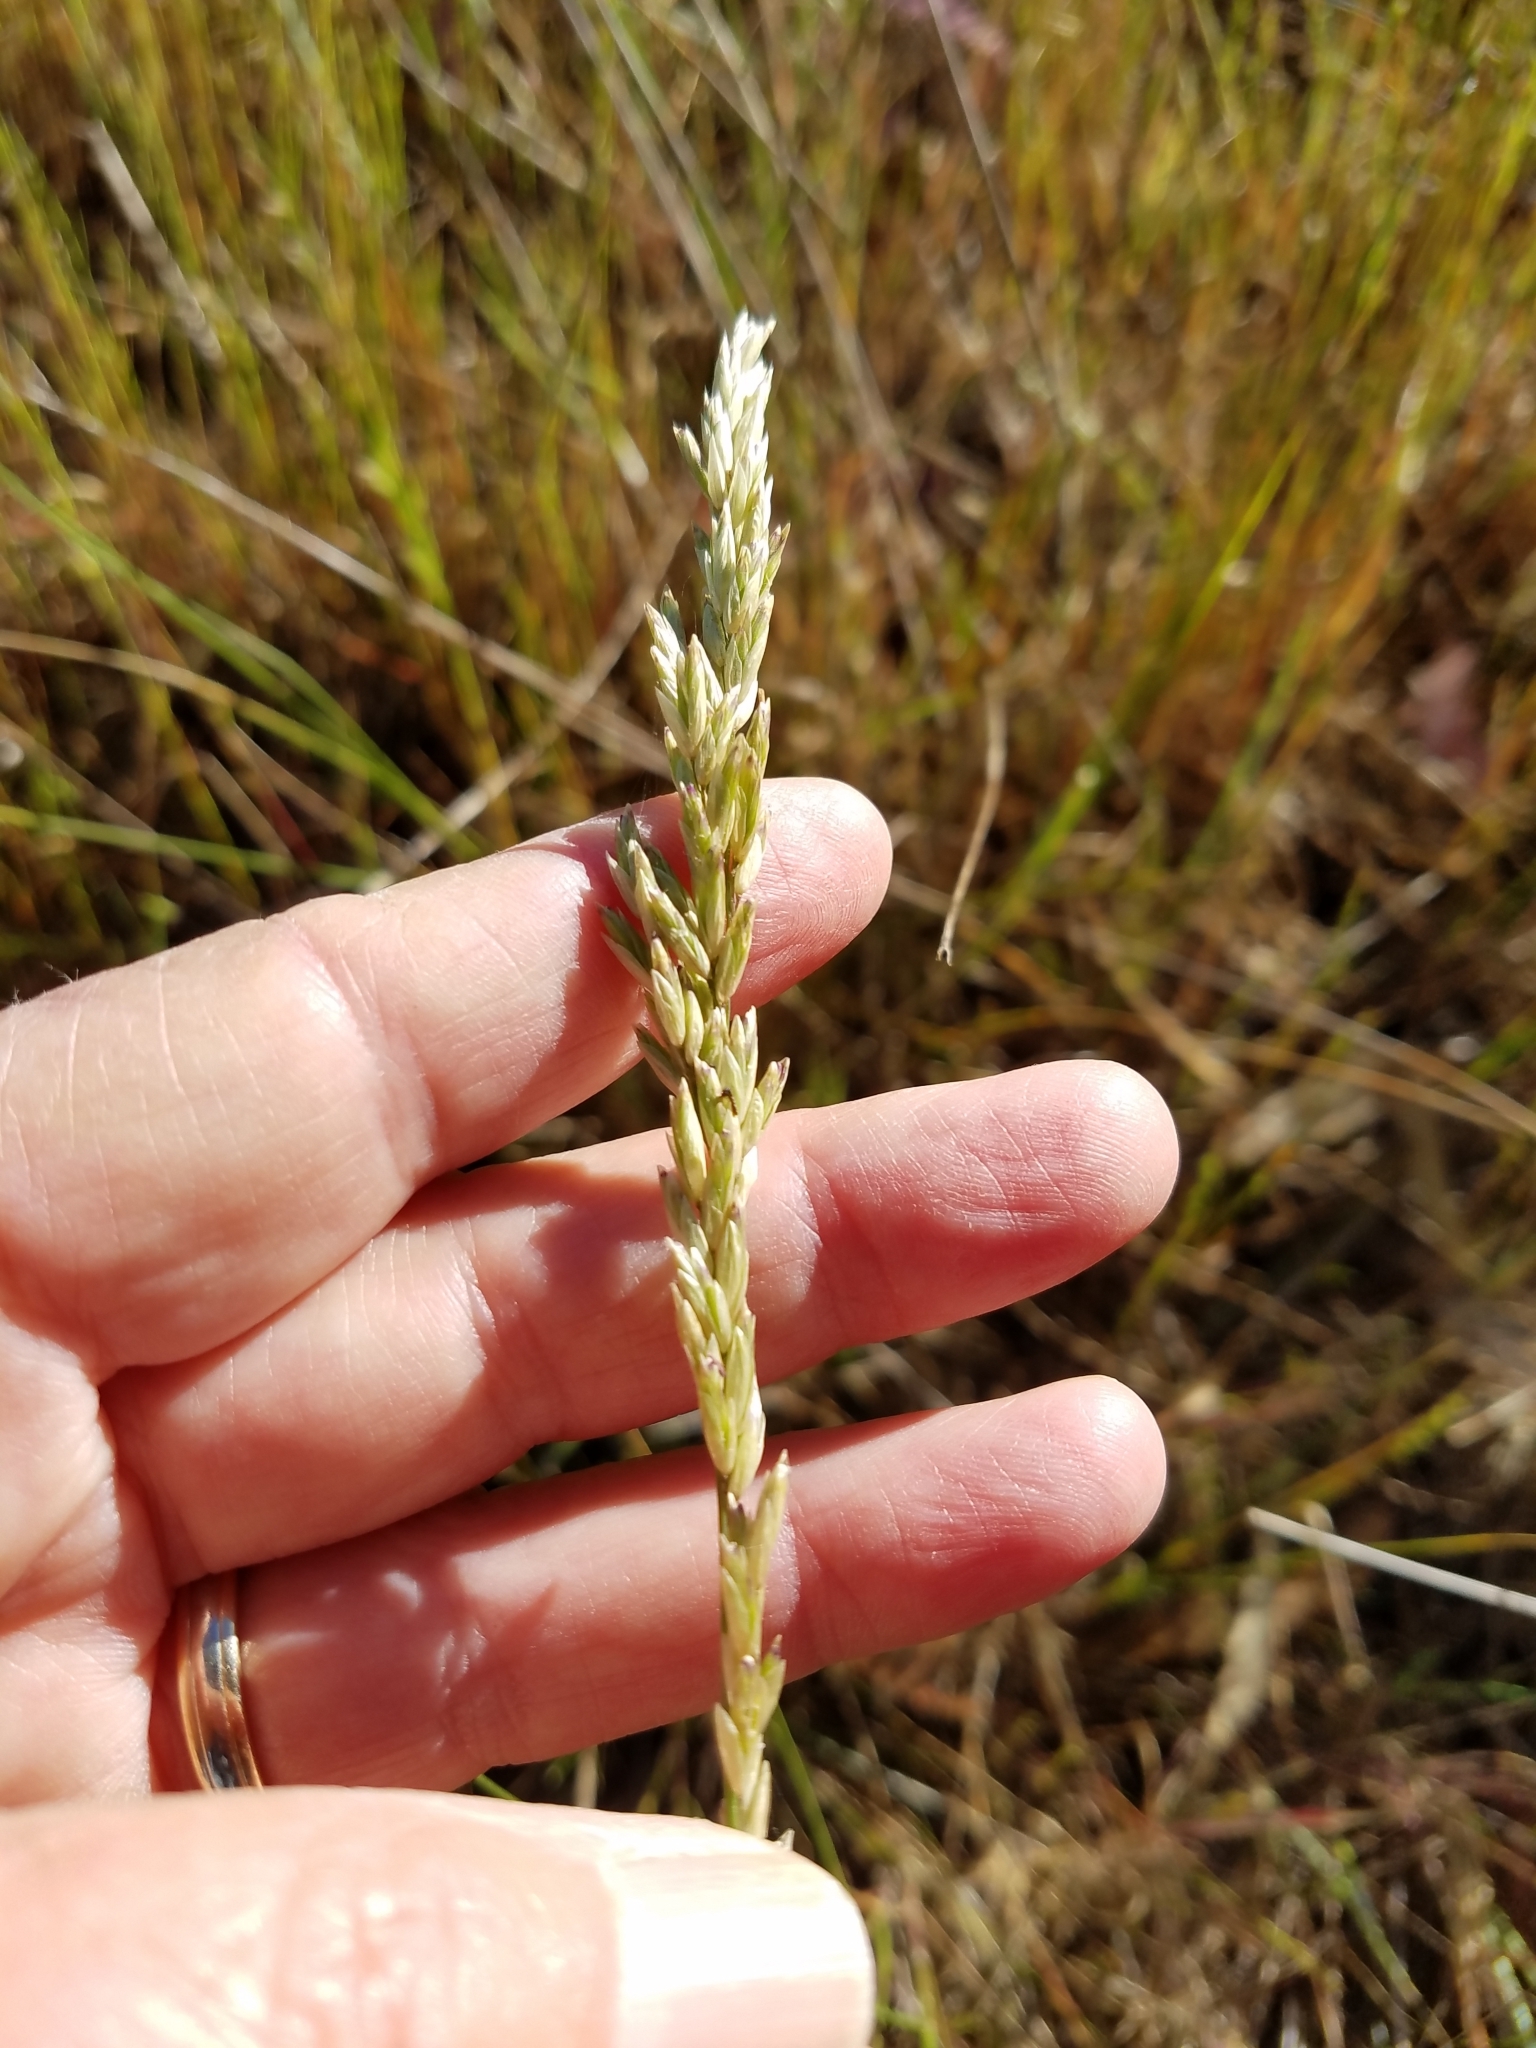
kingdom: Plantae
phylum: Tracheophyta
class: Liliopsida
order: Poales
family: Poaceae
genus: Melica
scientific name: Melica californica
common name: California melic
